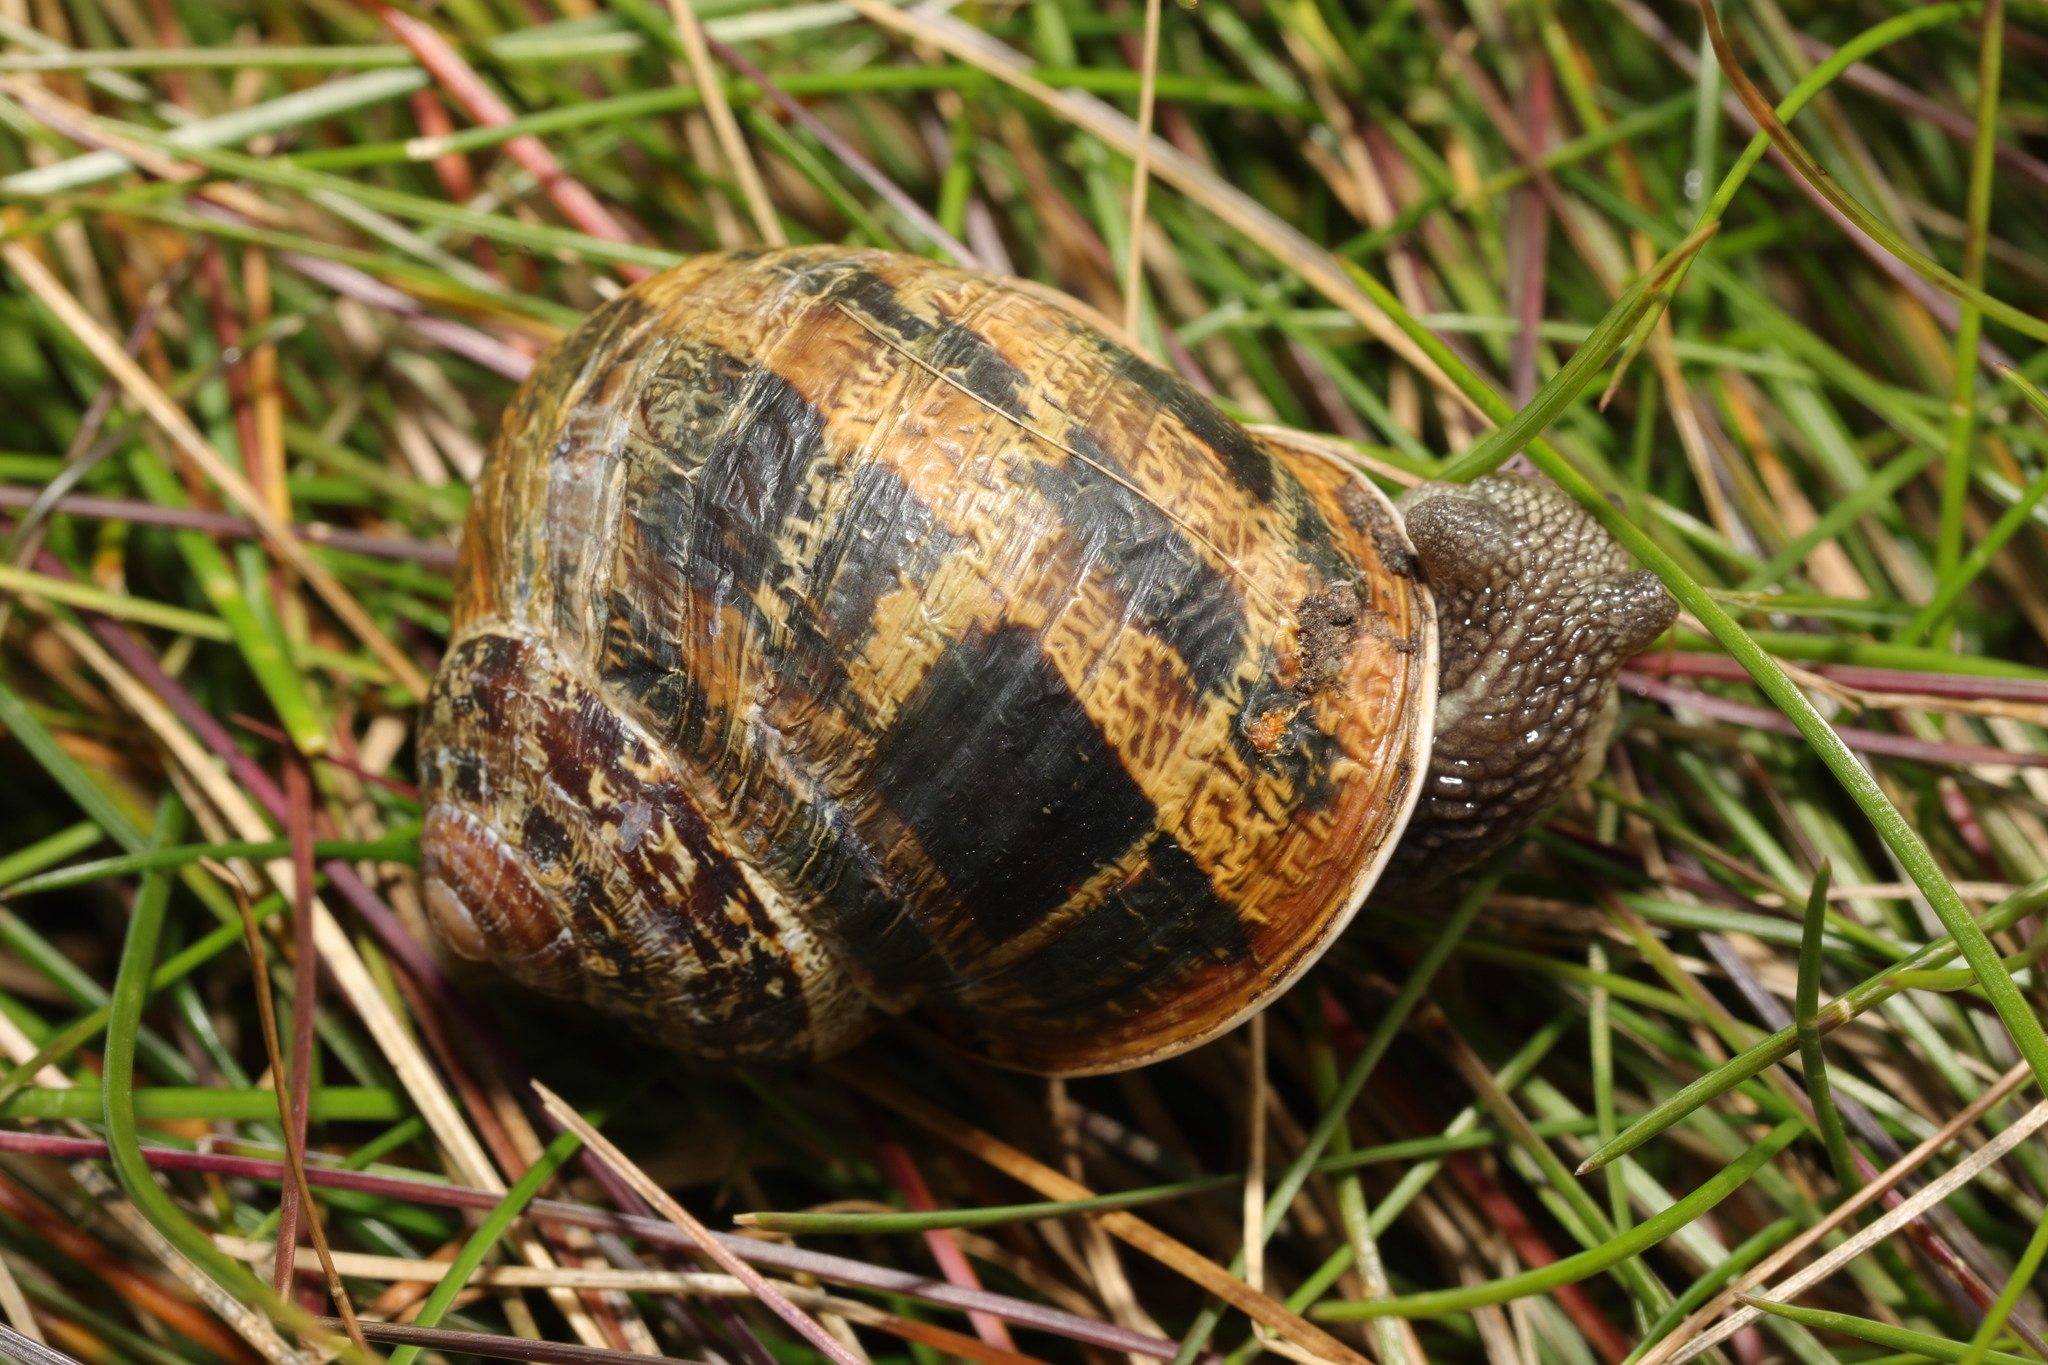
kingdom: Animalia
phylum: Mollusca
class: Gastropoda
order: Stylommatophora
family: Helicidae
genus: Cornu
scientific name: Cornu aspersum
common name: Brown garden snail
